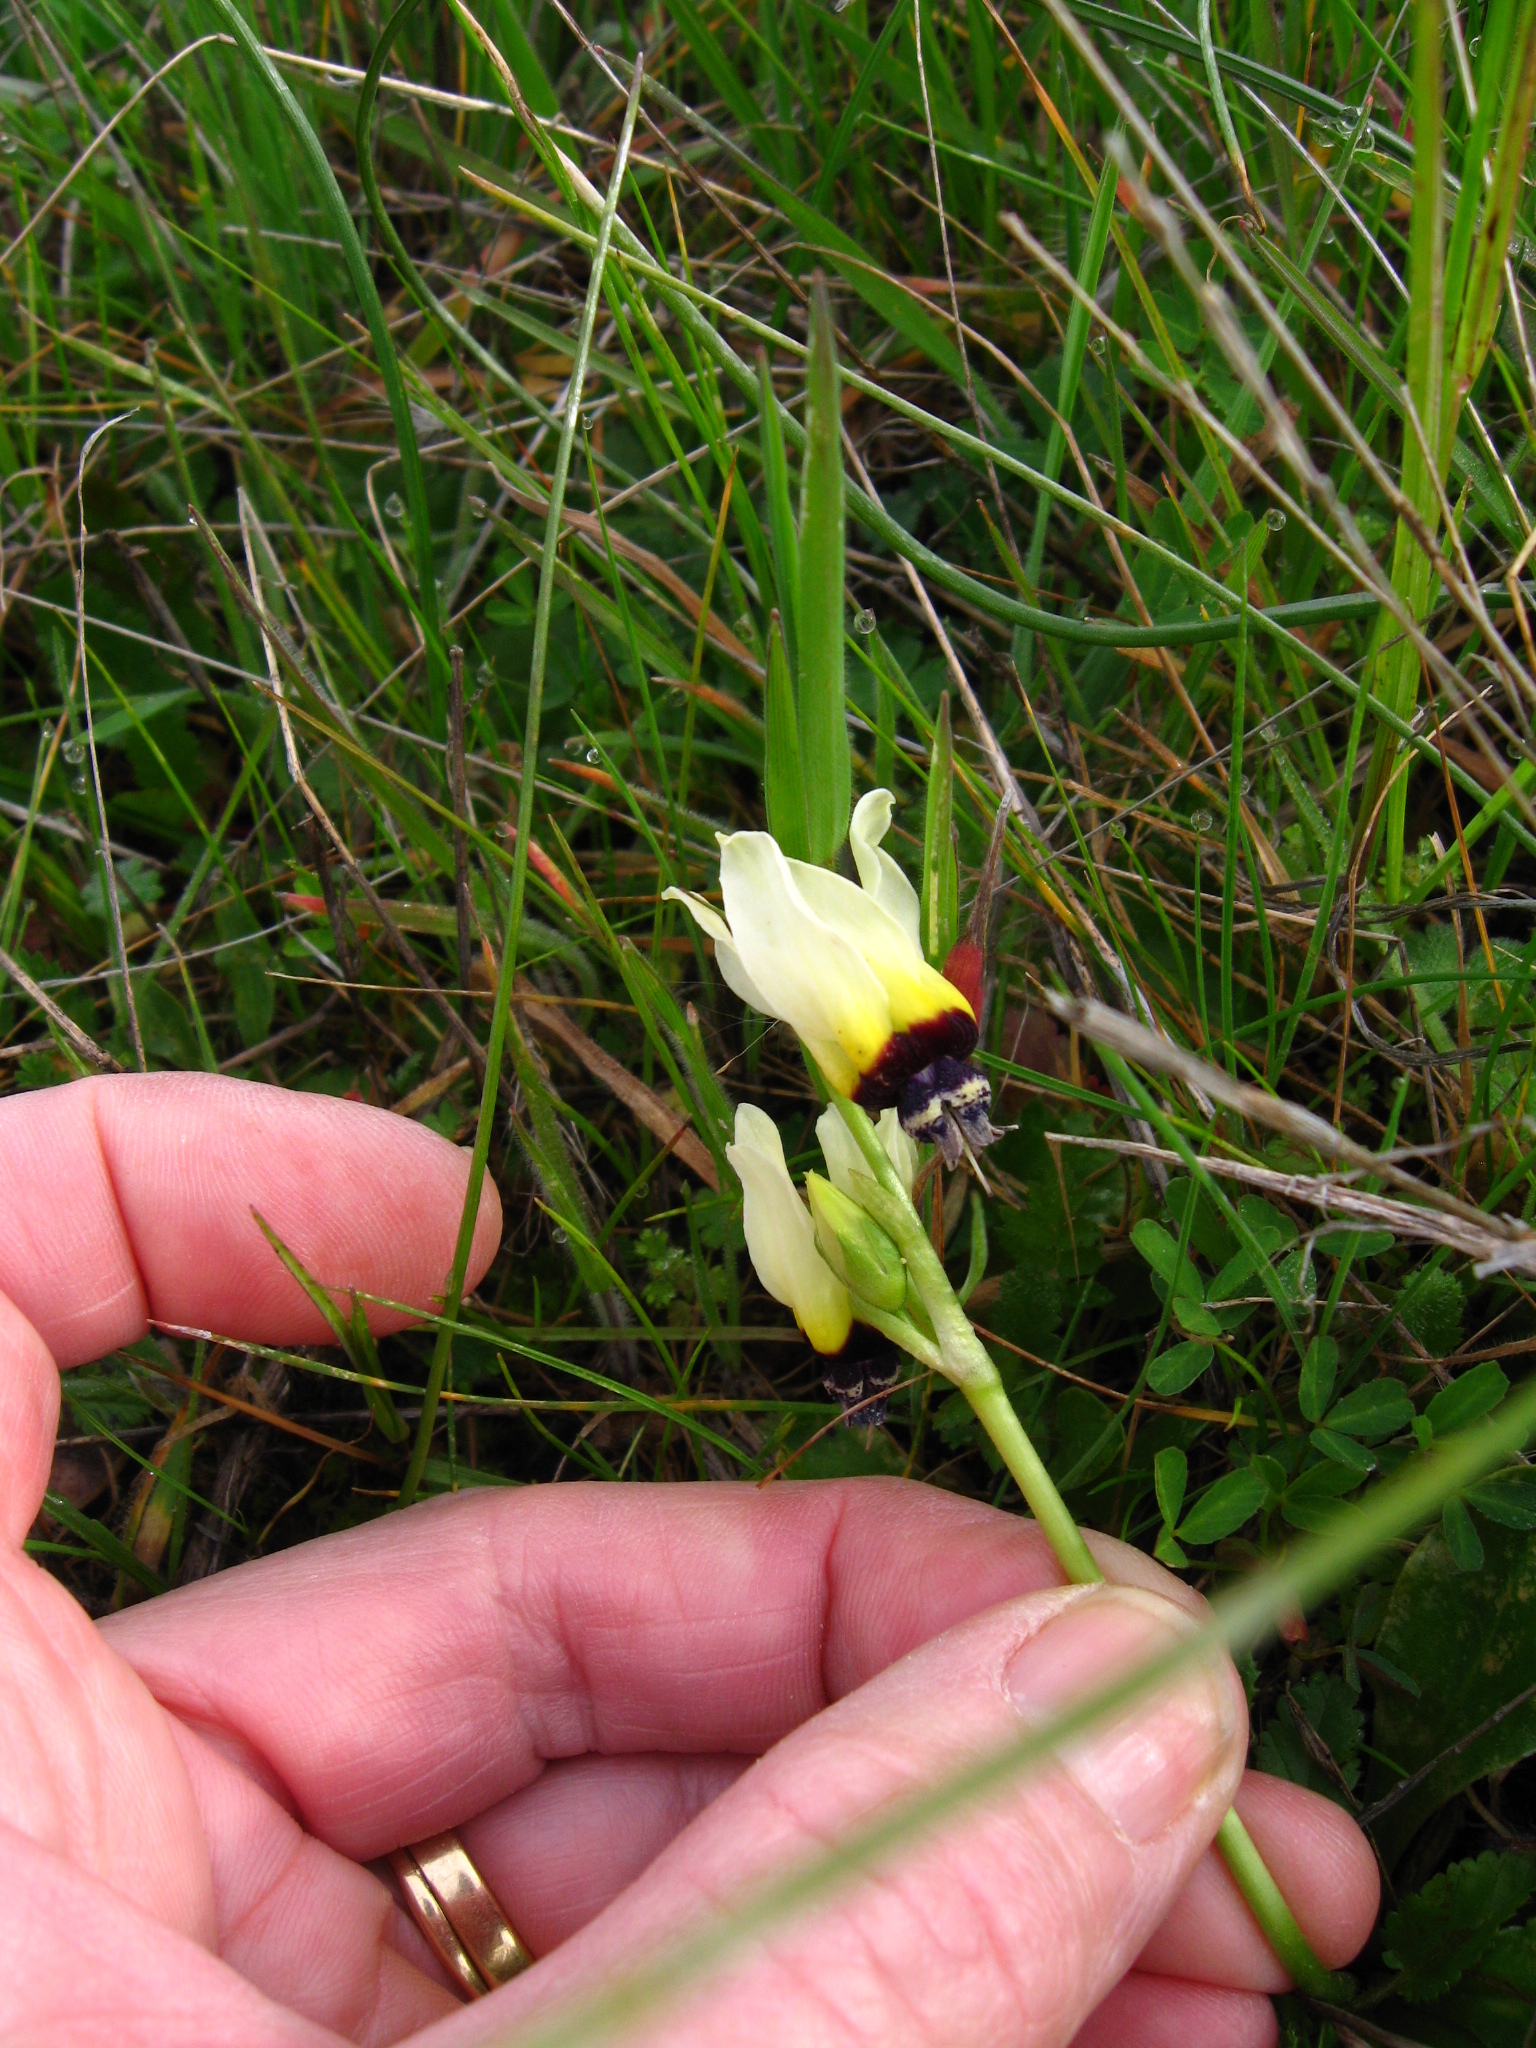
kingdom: Plantae
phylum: Tracheophyta
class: Magnoliopsida
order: Ericales
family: Primulaceae
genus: Dodecatheon
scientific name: Dodecatheon clevelandii
